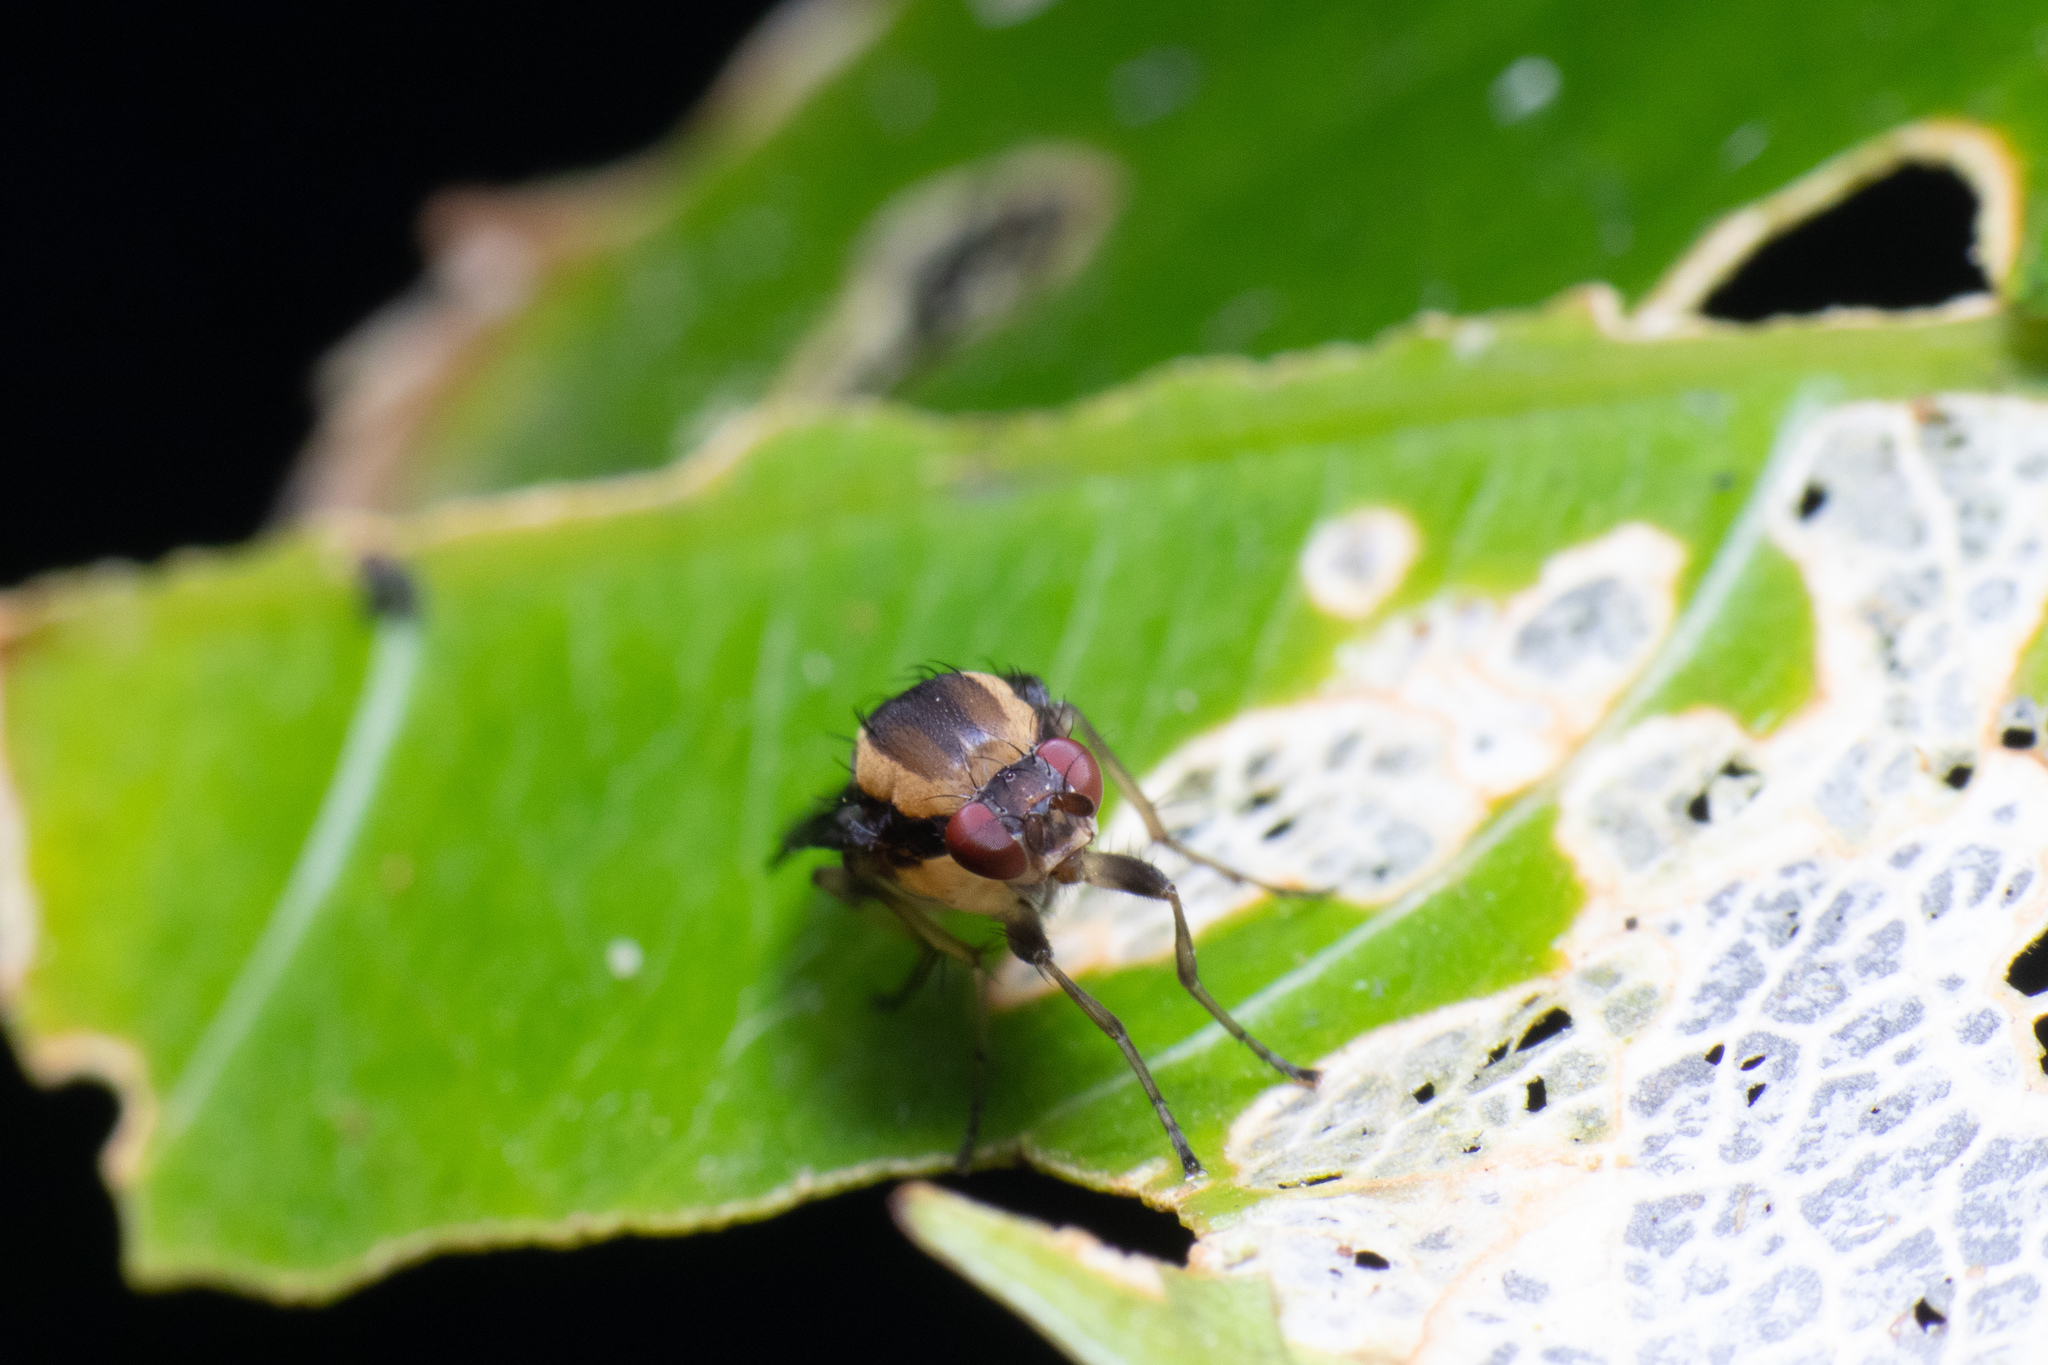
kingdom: Animalia
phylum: Arthropoda
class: Insecta
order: Diptera
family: Heleomyzidae
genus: Allophylopsis
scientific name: Allophylopsis scutellata
